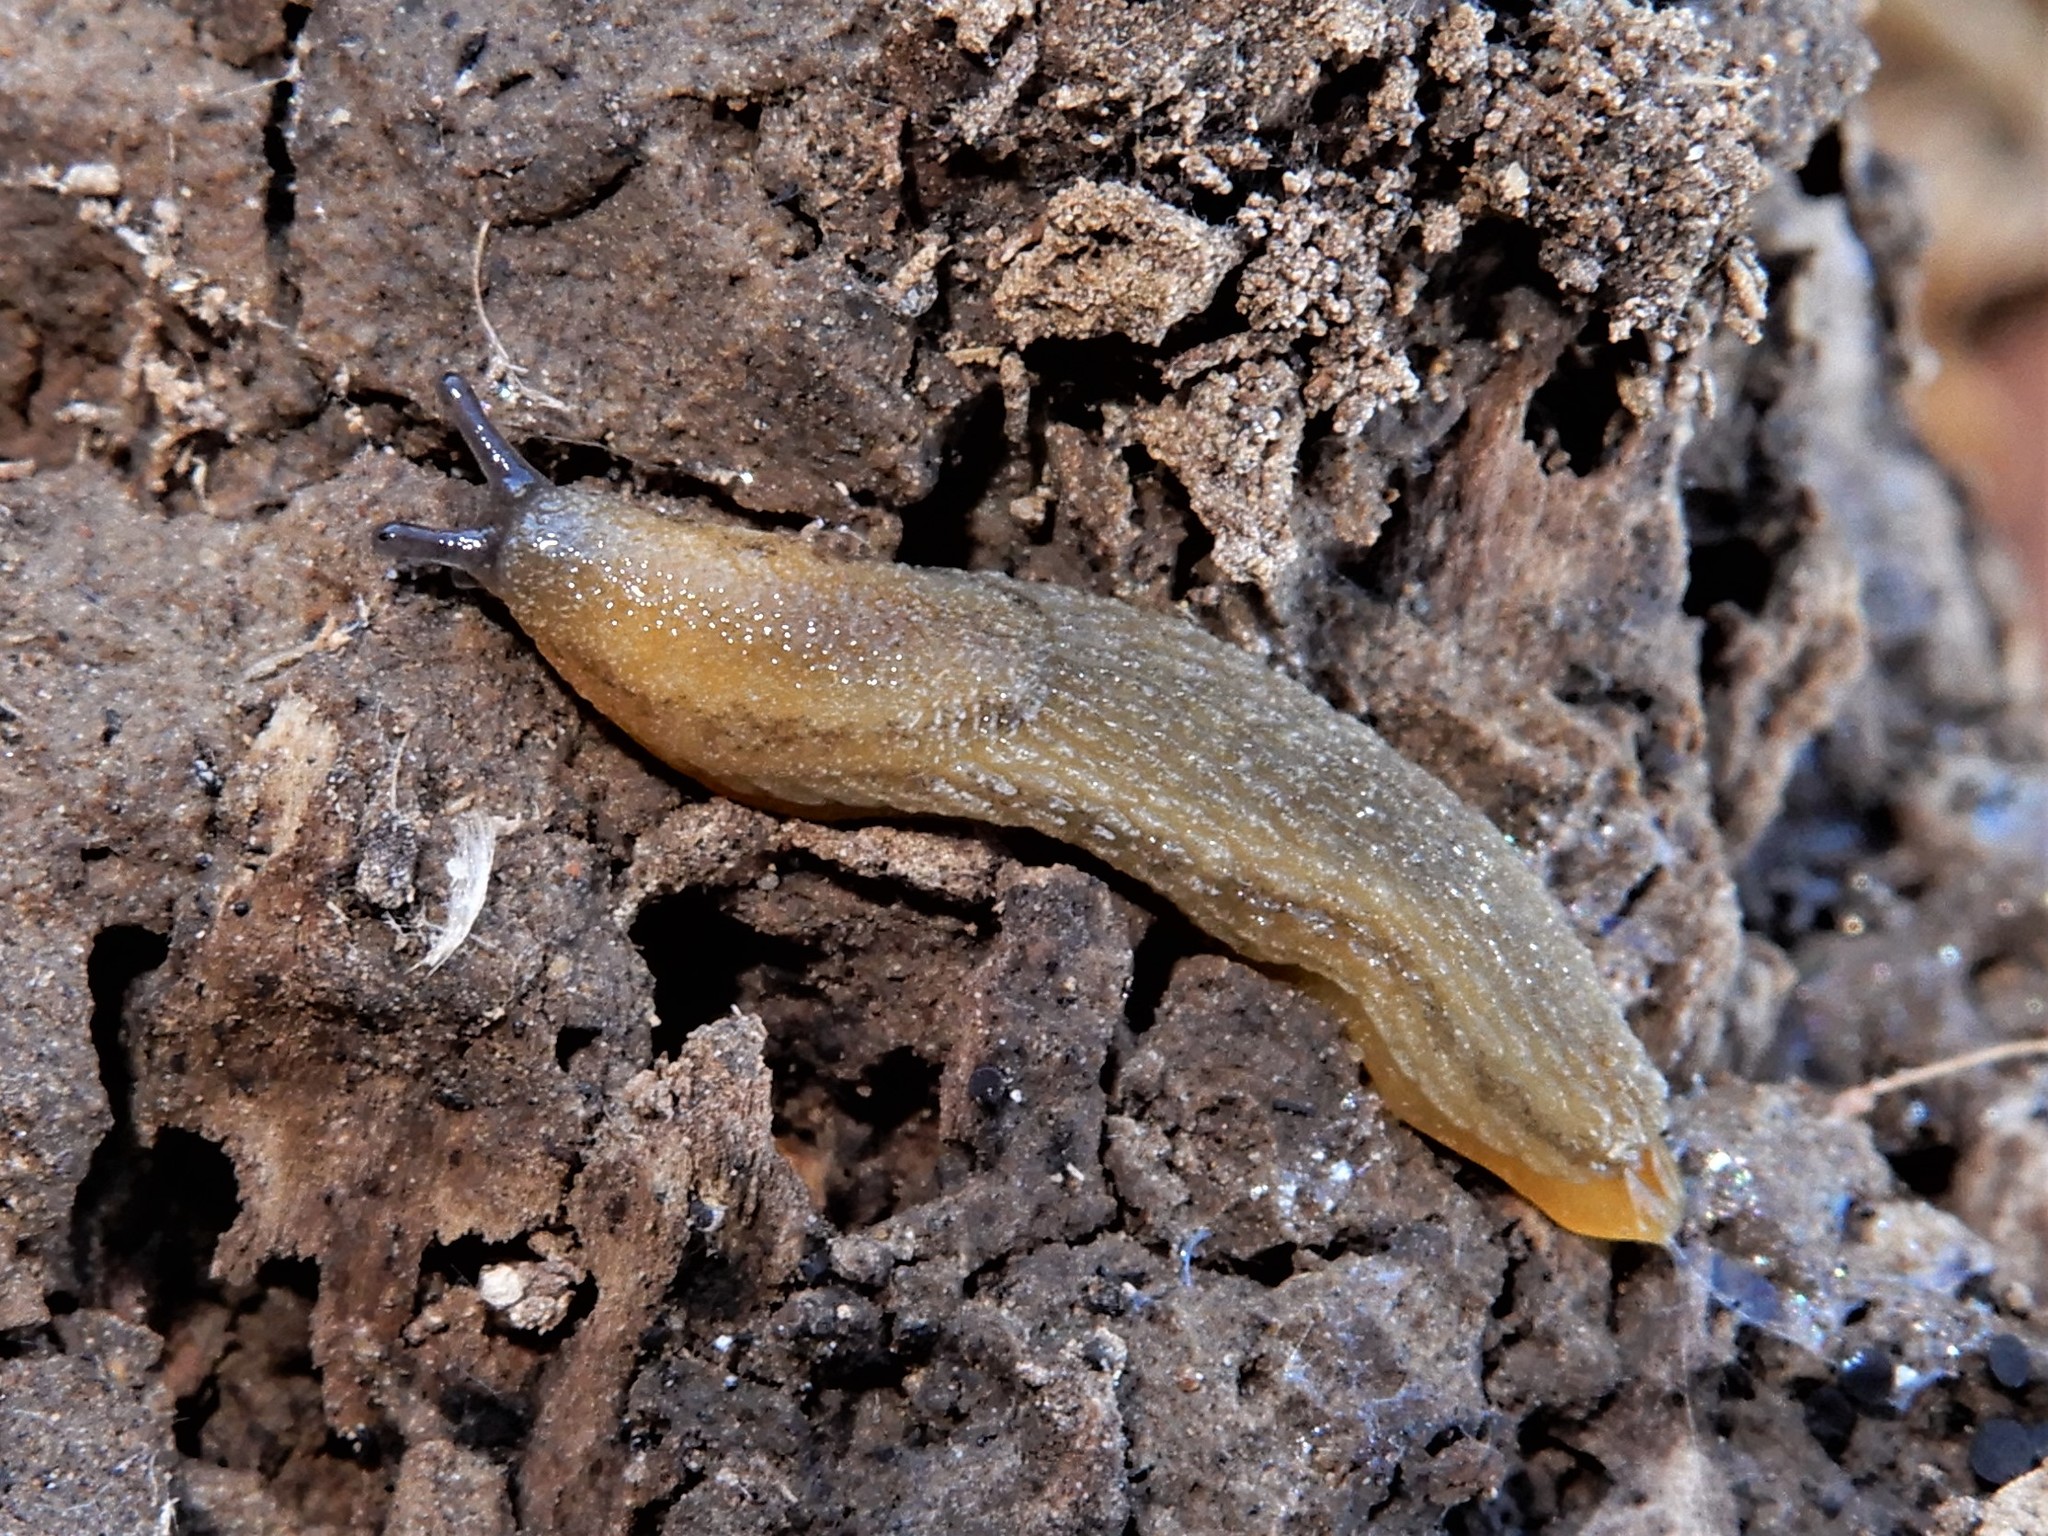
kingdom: Animalia
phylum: Mollusca
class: Gastropoda
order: Stylommatophora
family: Arionidae
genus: Arion
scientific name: Arion intermedius
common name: Hedgehog slug
